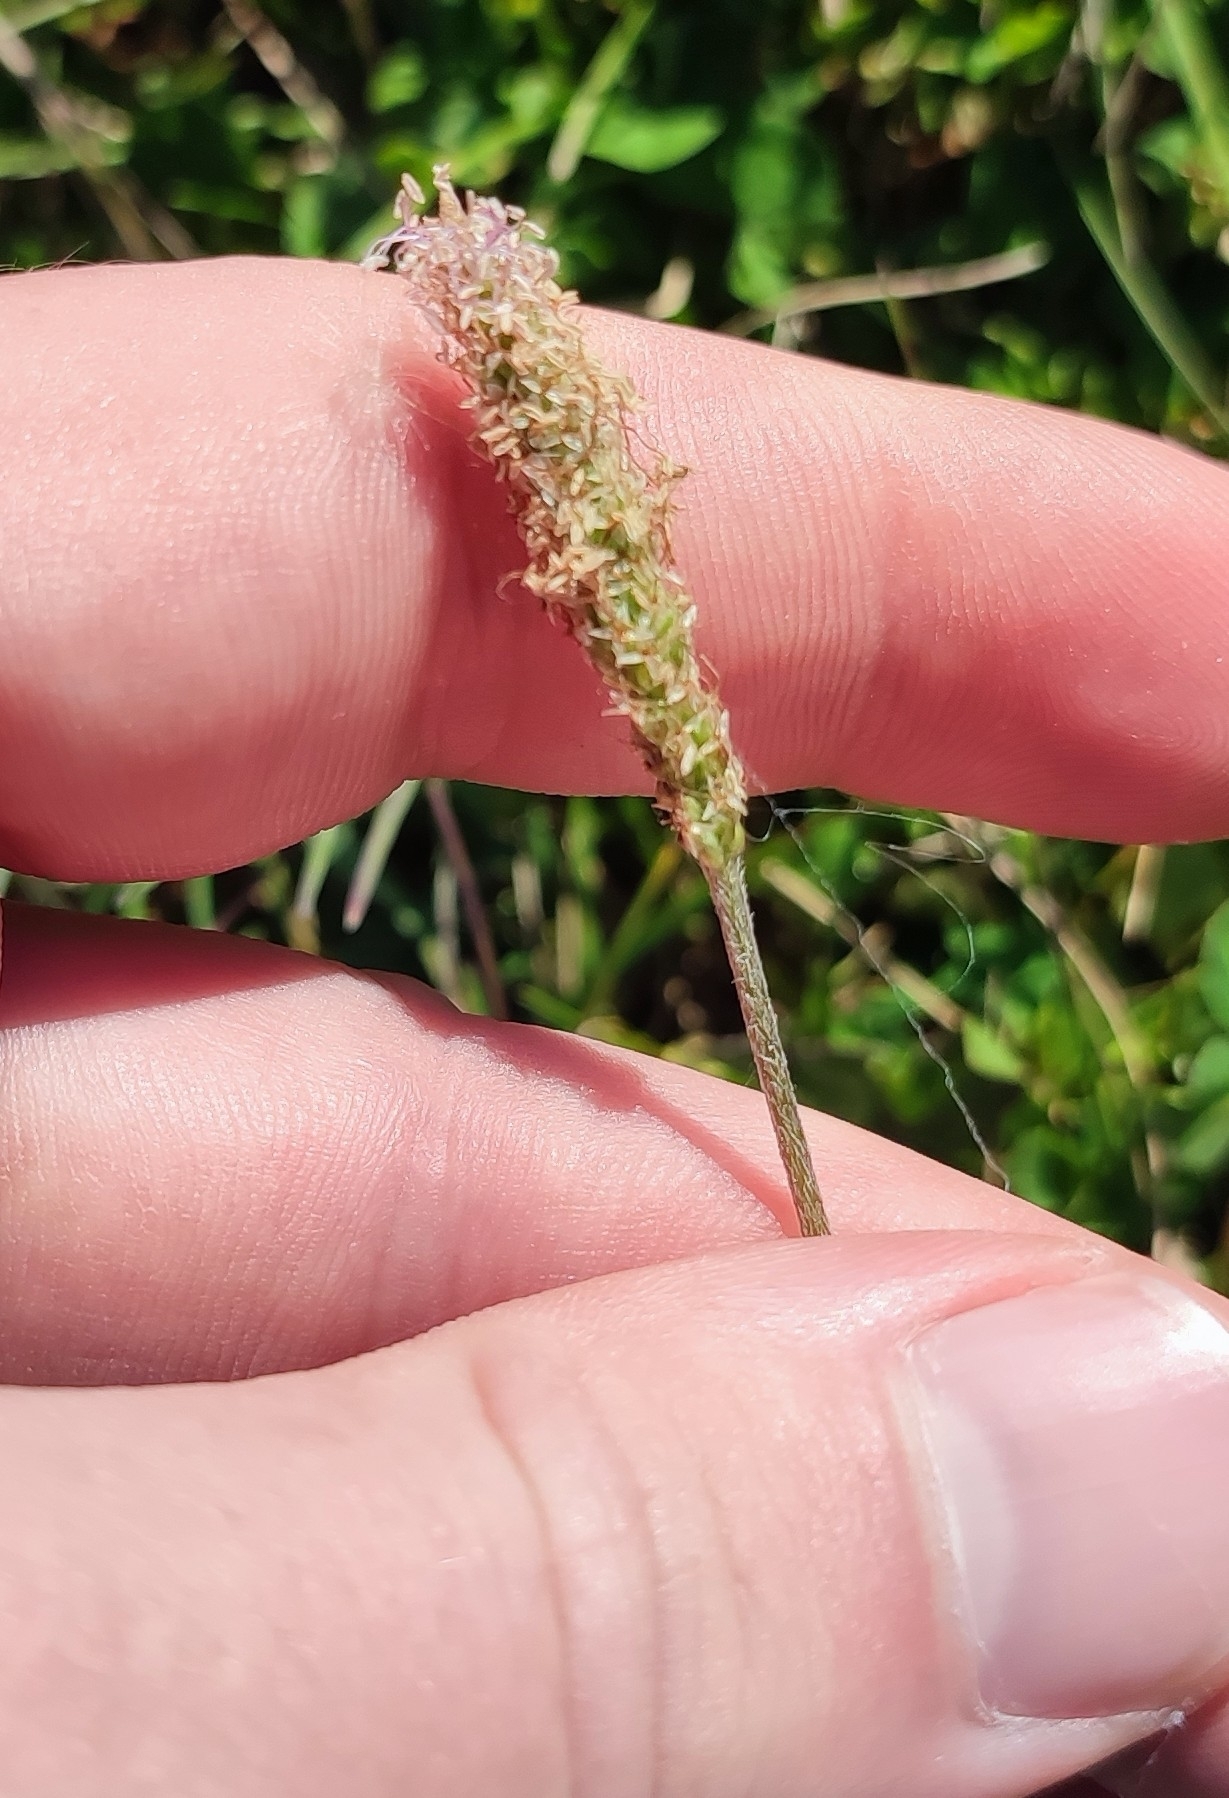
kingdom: Plantae
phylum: Tracheophyta
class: Magnoliopsida
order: Lamiales
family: Plantaginaceae
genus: Plantago
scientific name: Plantago media
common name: Hoary plantain
